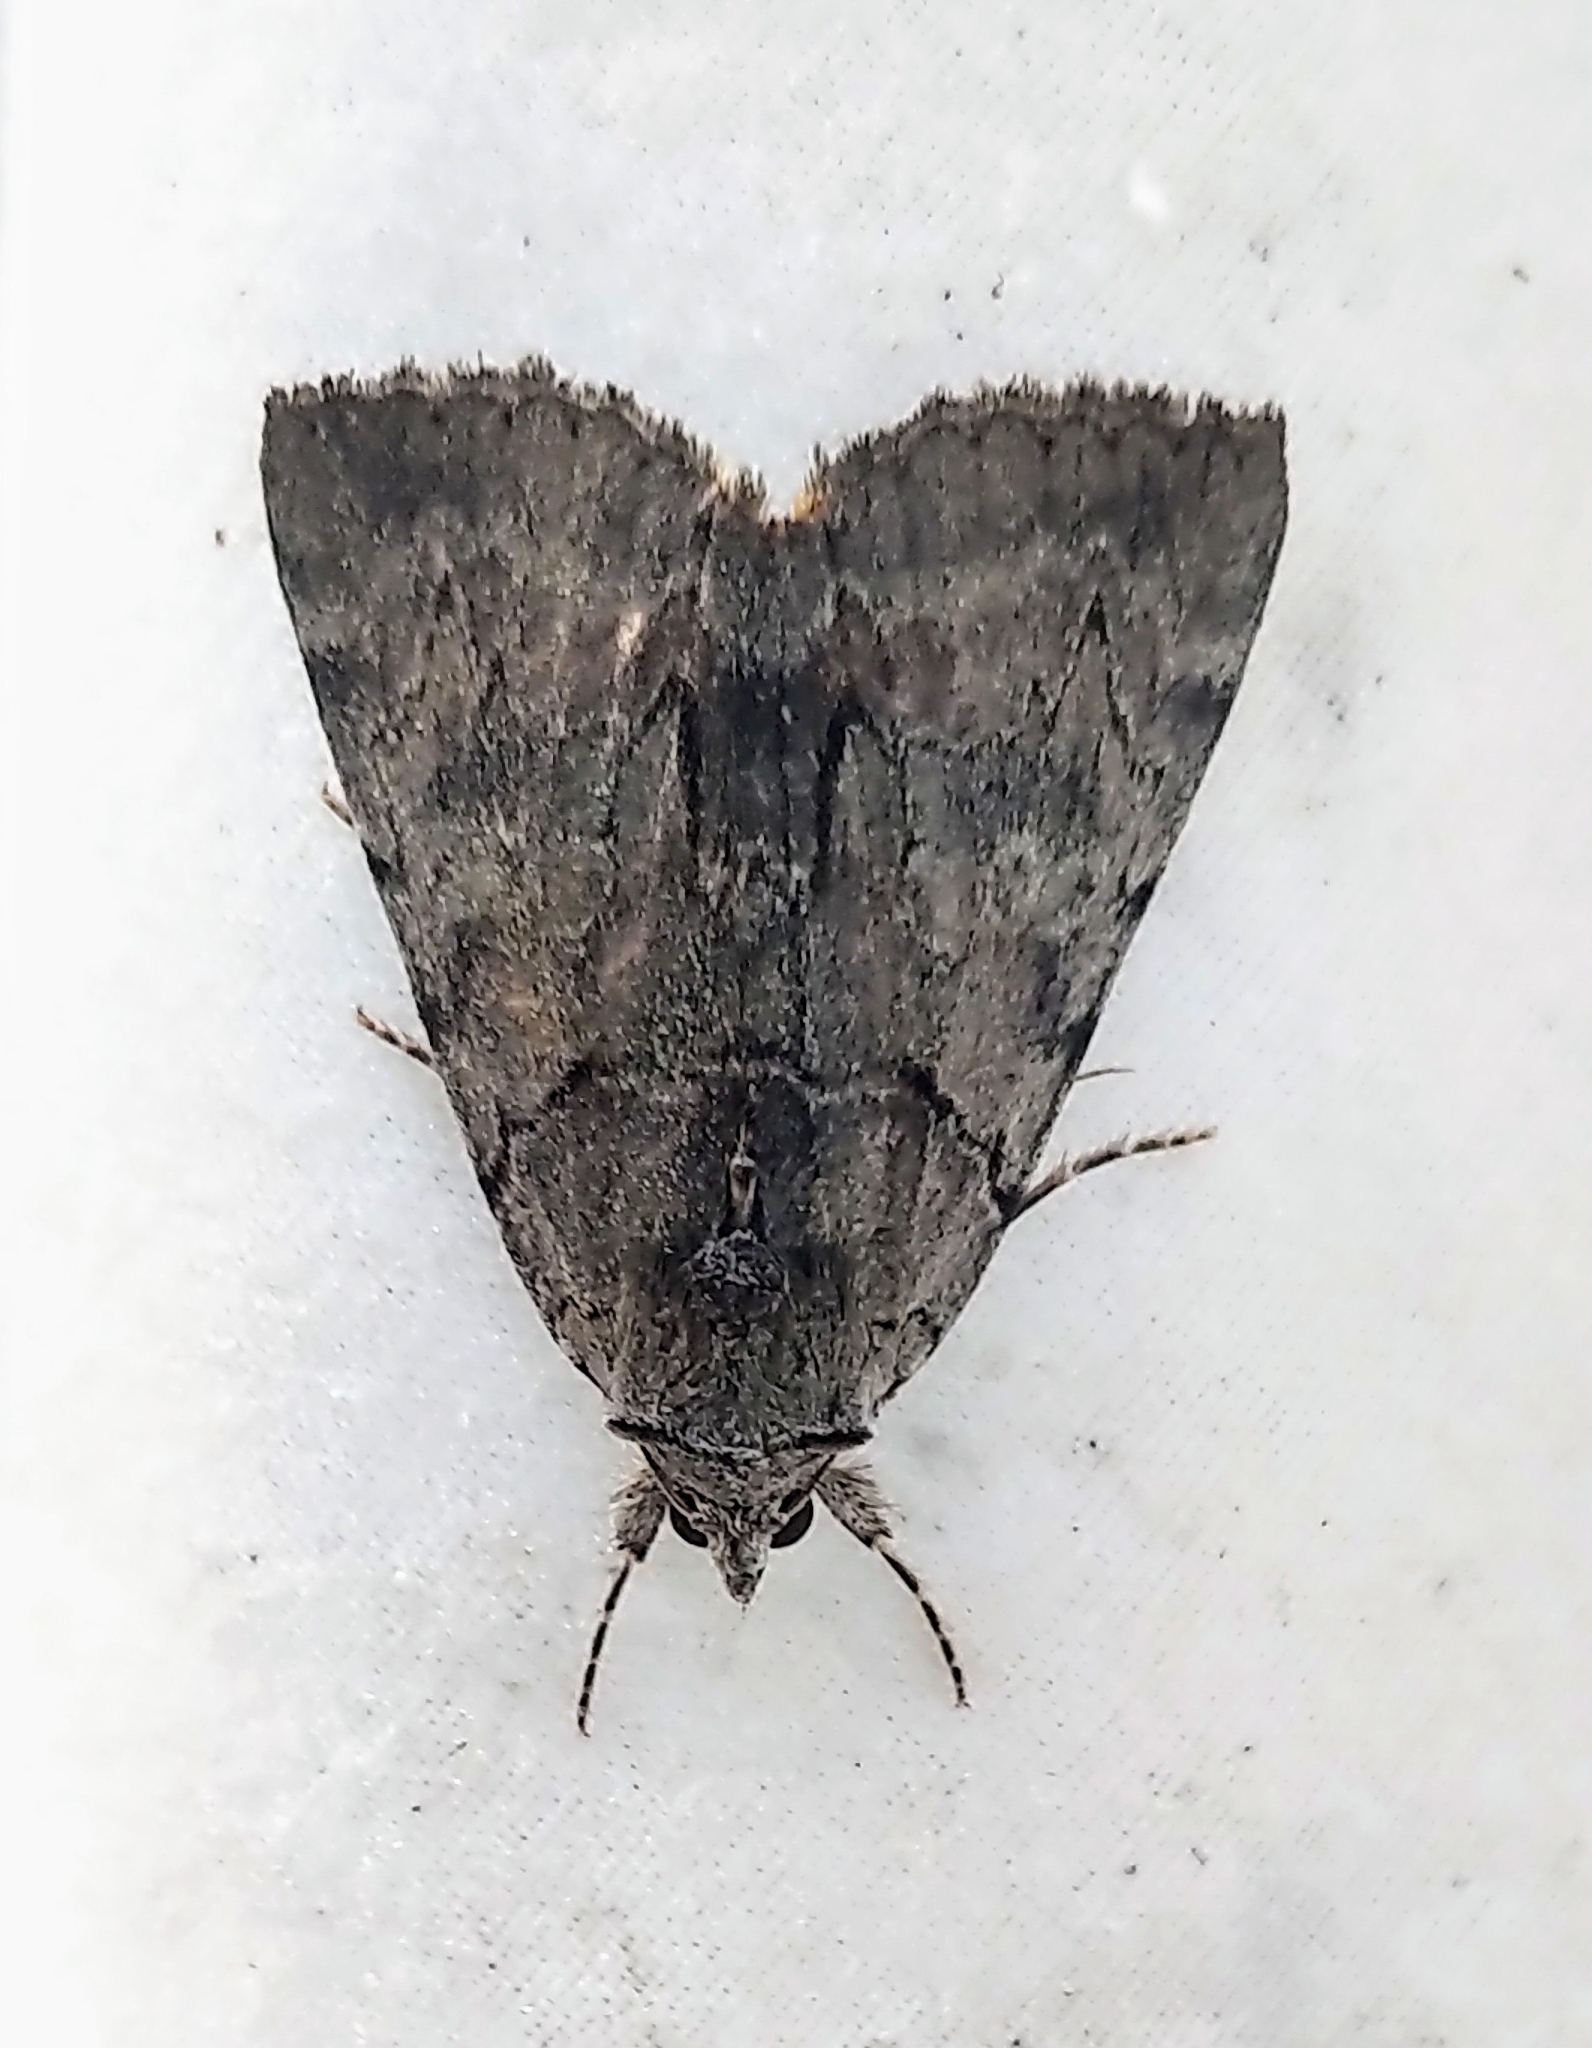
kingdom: Animalia
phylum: Arthropoda
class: Insecta
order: Lepidoptera
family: Erebidae
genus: Catocala
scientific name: Catocala praeclara
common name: Praeclara underwing
